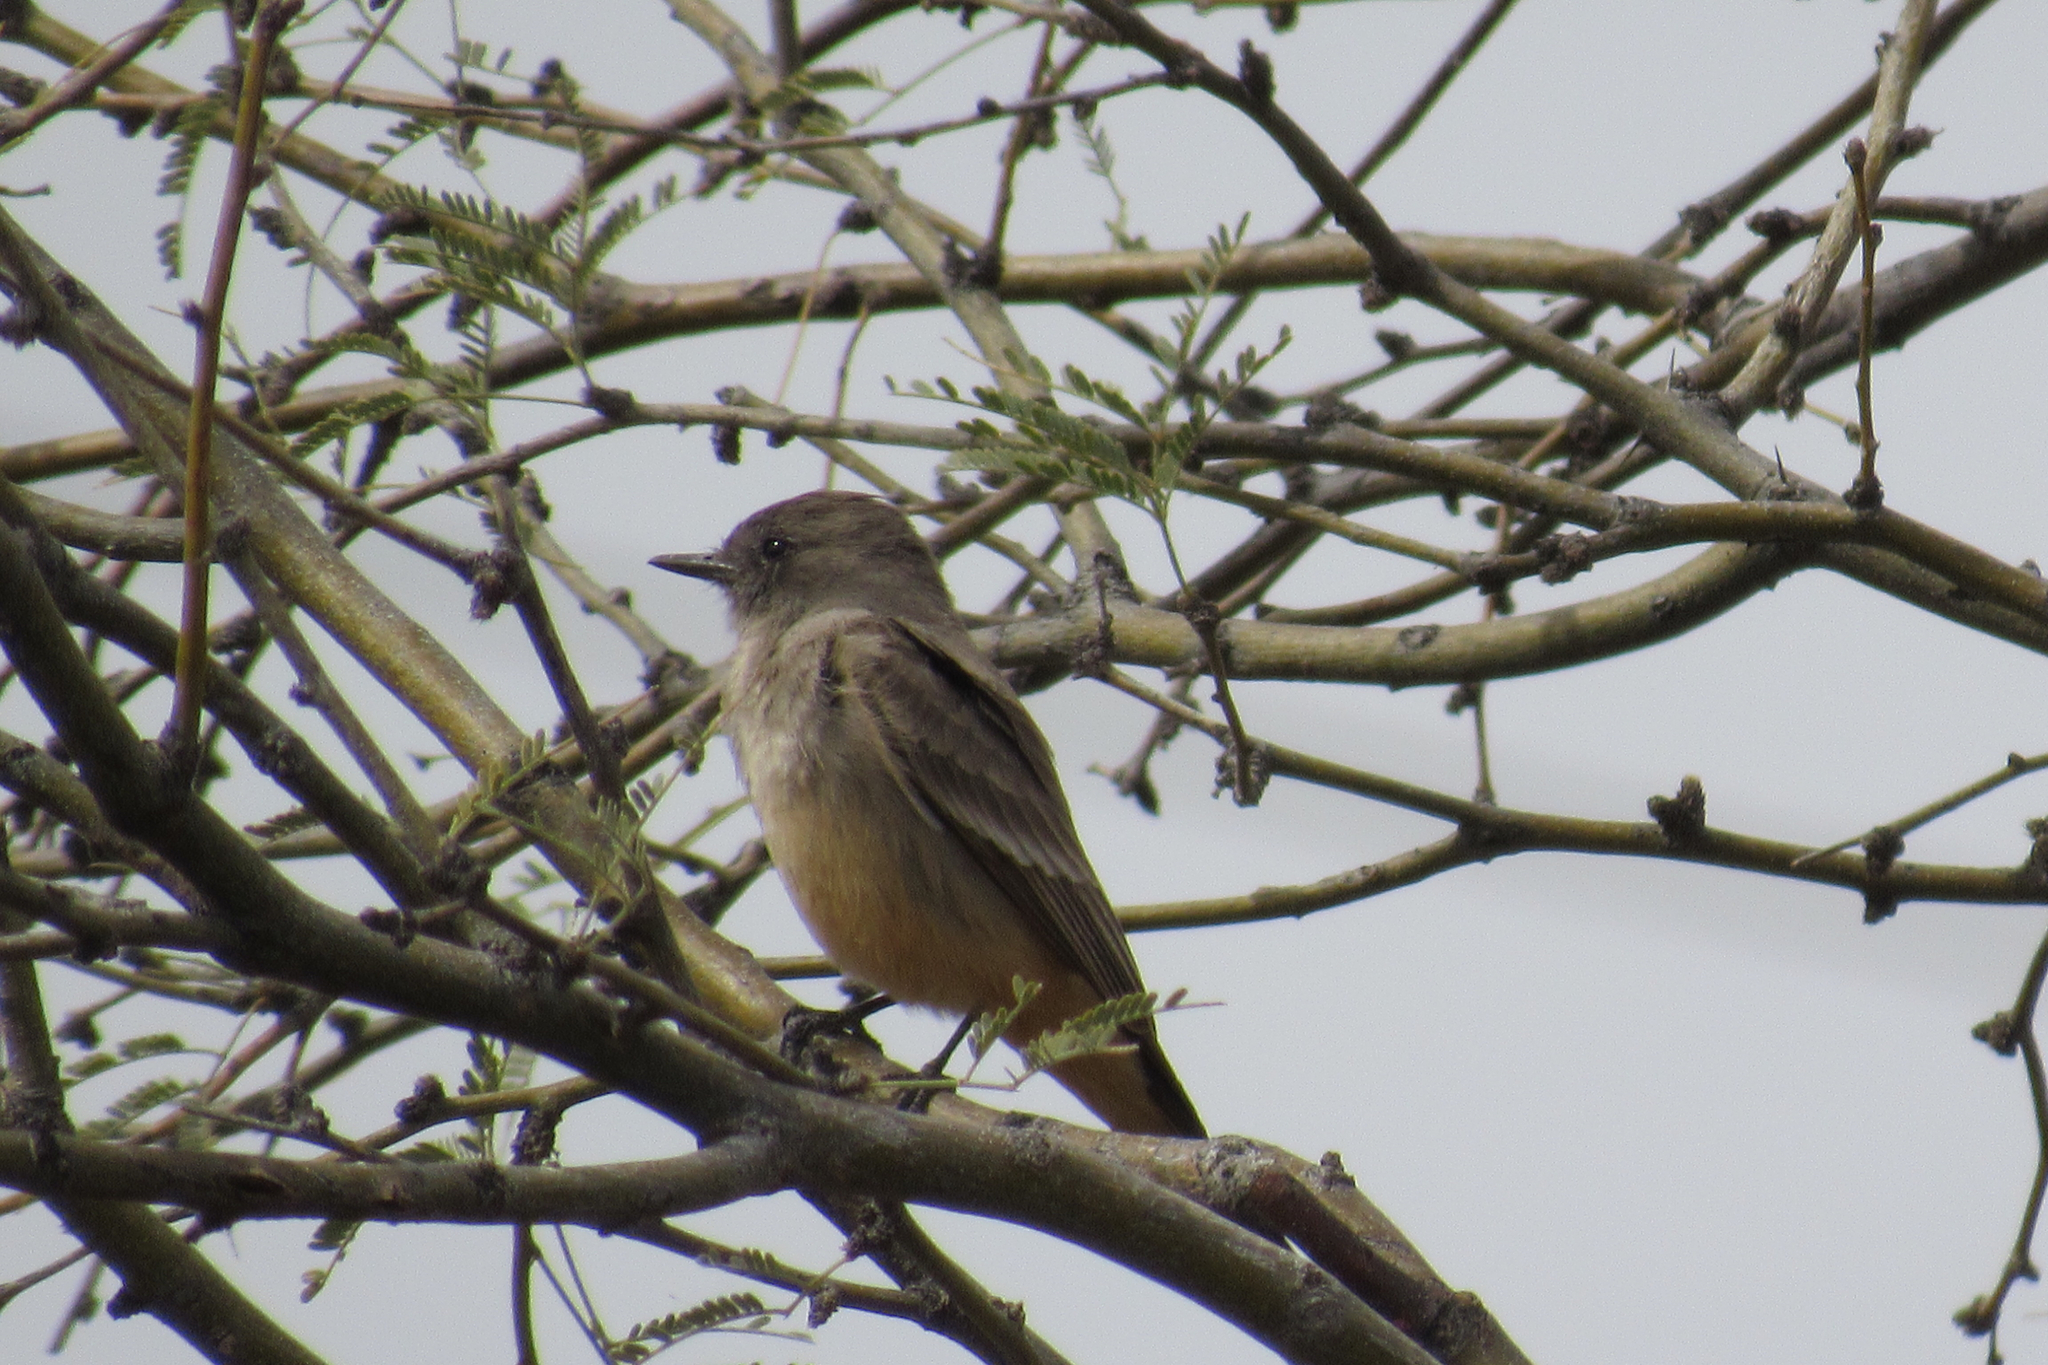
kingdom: Animalia
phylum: Chordata
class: Aves
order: Passeriformes
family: Tyrannidae
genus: Sayornis
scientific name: Sayornis saya
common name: Say's phoebe
